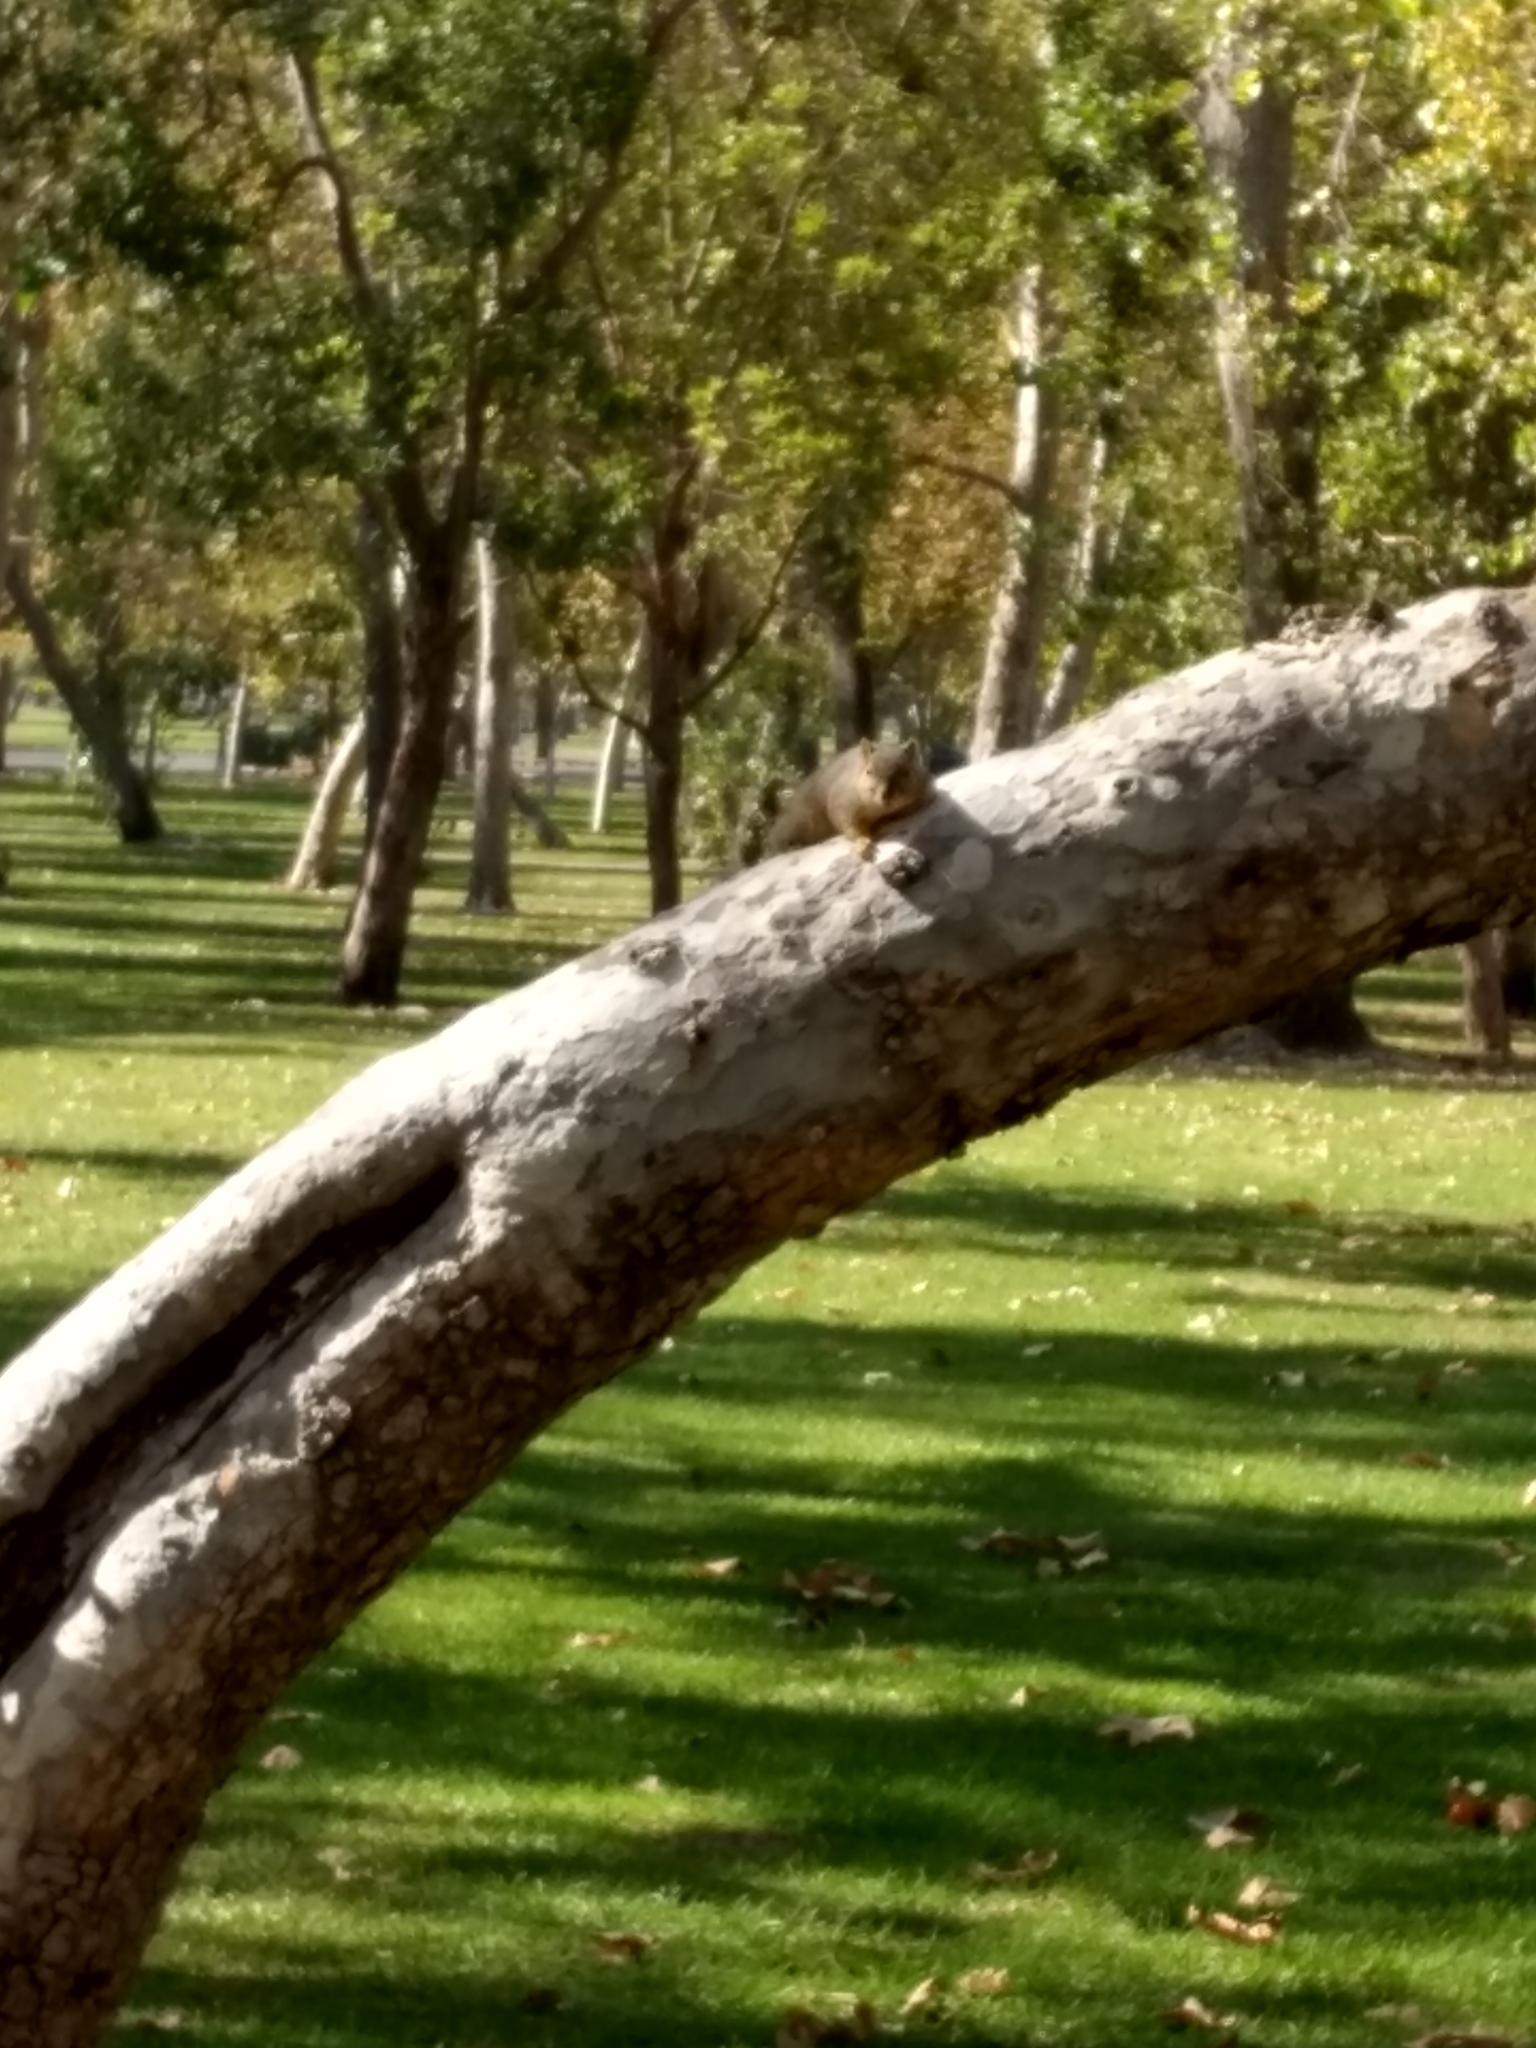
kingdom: Animalia
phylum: Chordata
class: Mammalia
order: Rodentia
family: Sciuridae
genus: Sciurus
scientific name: Sciurus niger
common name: Fox squirrel
